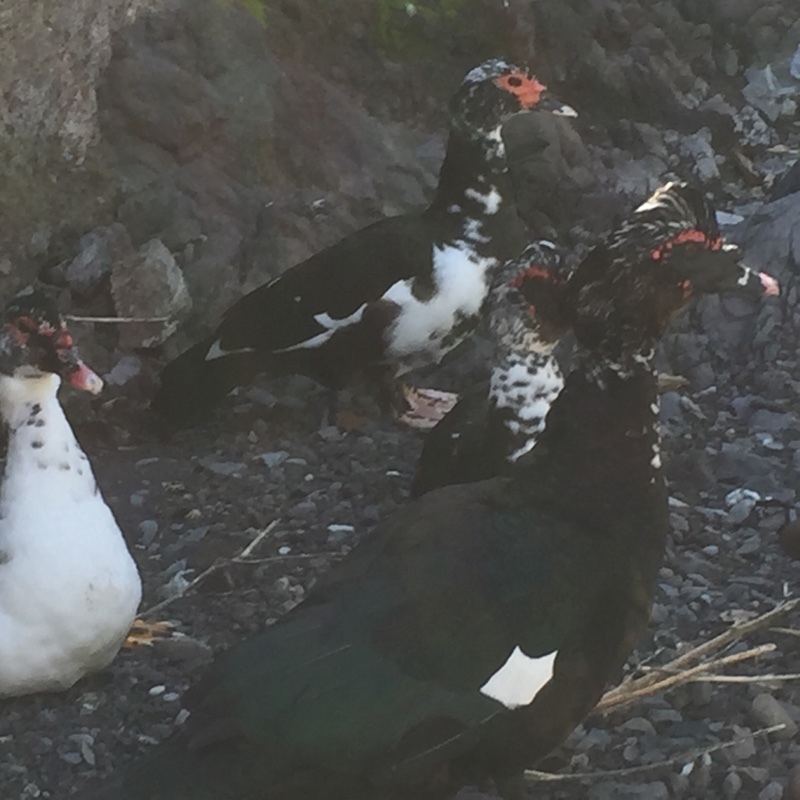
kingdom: Animalia
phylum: Chordata
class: Aves
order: Anseriformes
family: Anatidae
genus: Cairina
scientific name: Cairina moschata
